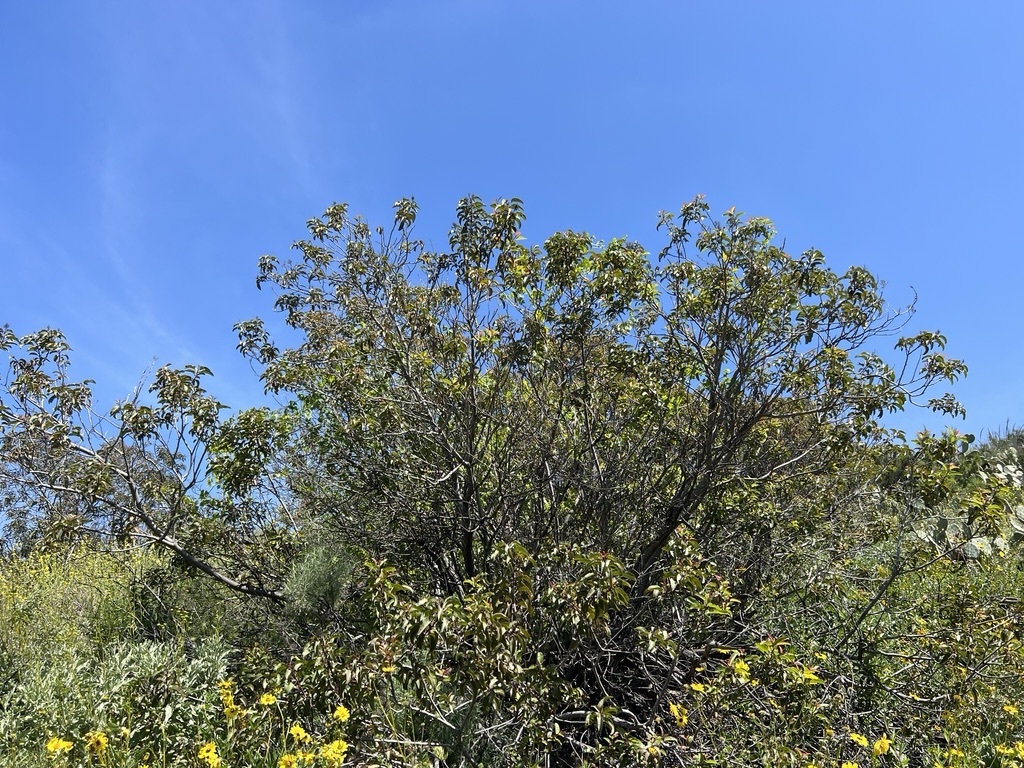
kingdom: Plantae
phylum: Tracheophyta
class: Magnoliopsida
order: Sapindales
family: Anacardiaceae
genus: Malosma
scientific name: Malosma laurina
